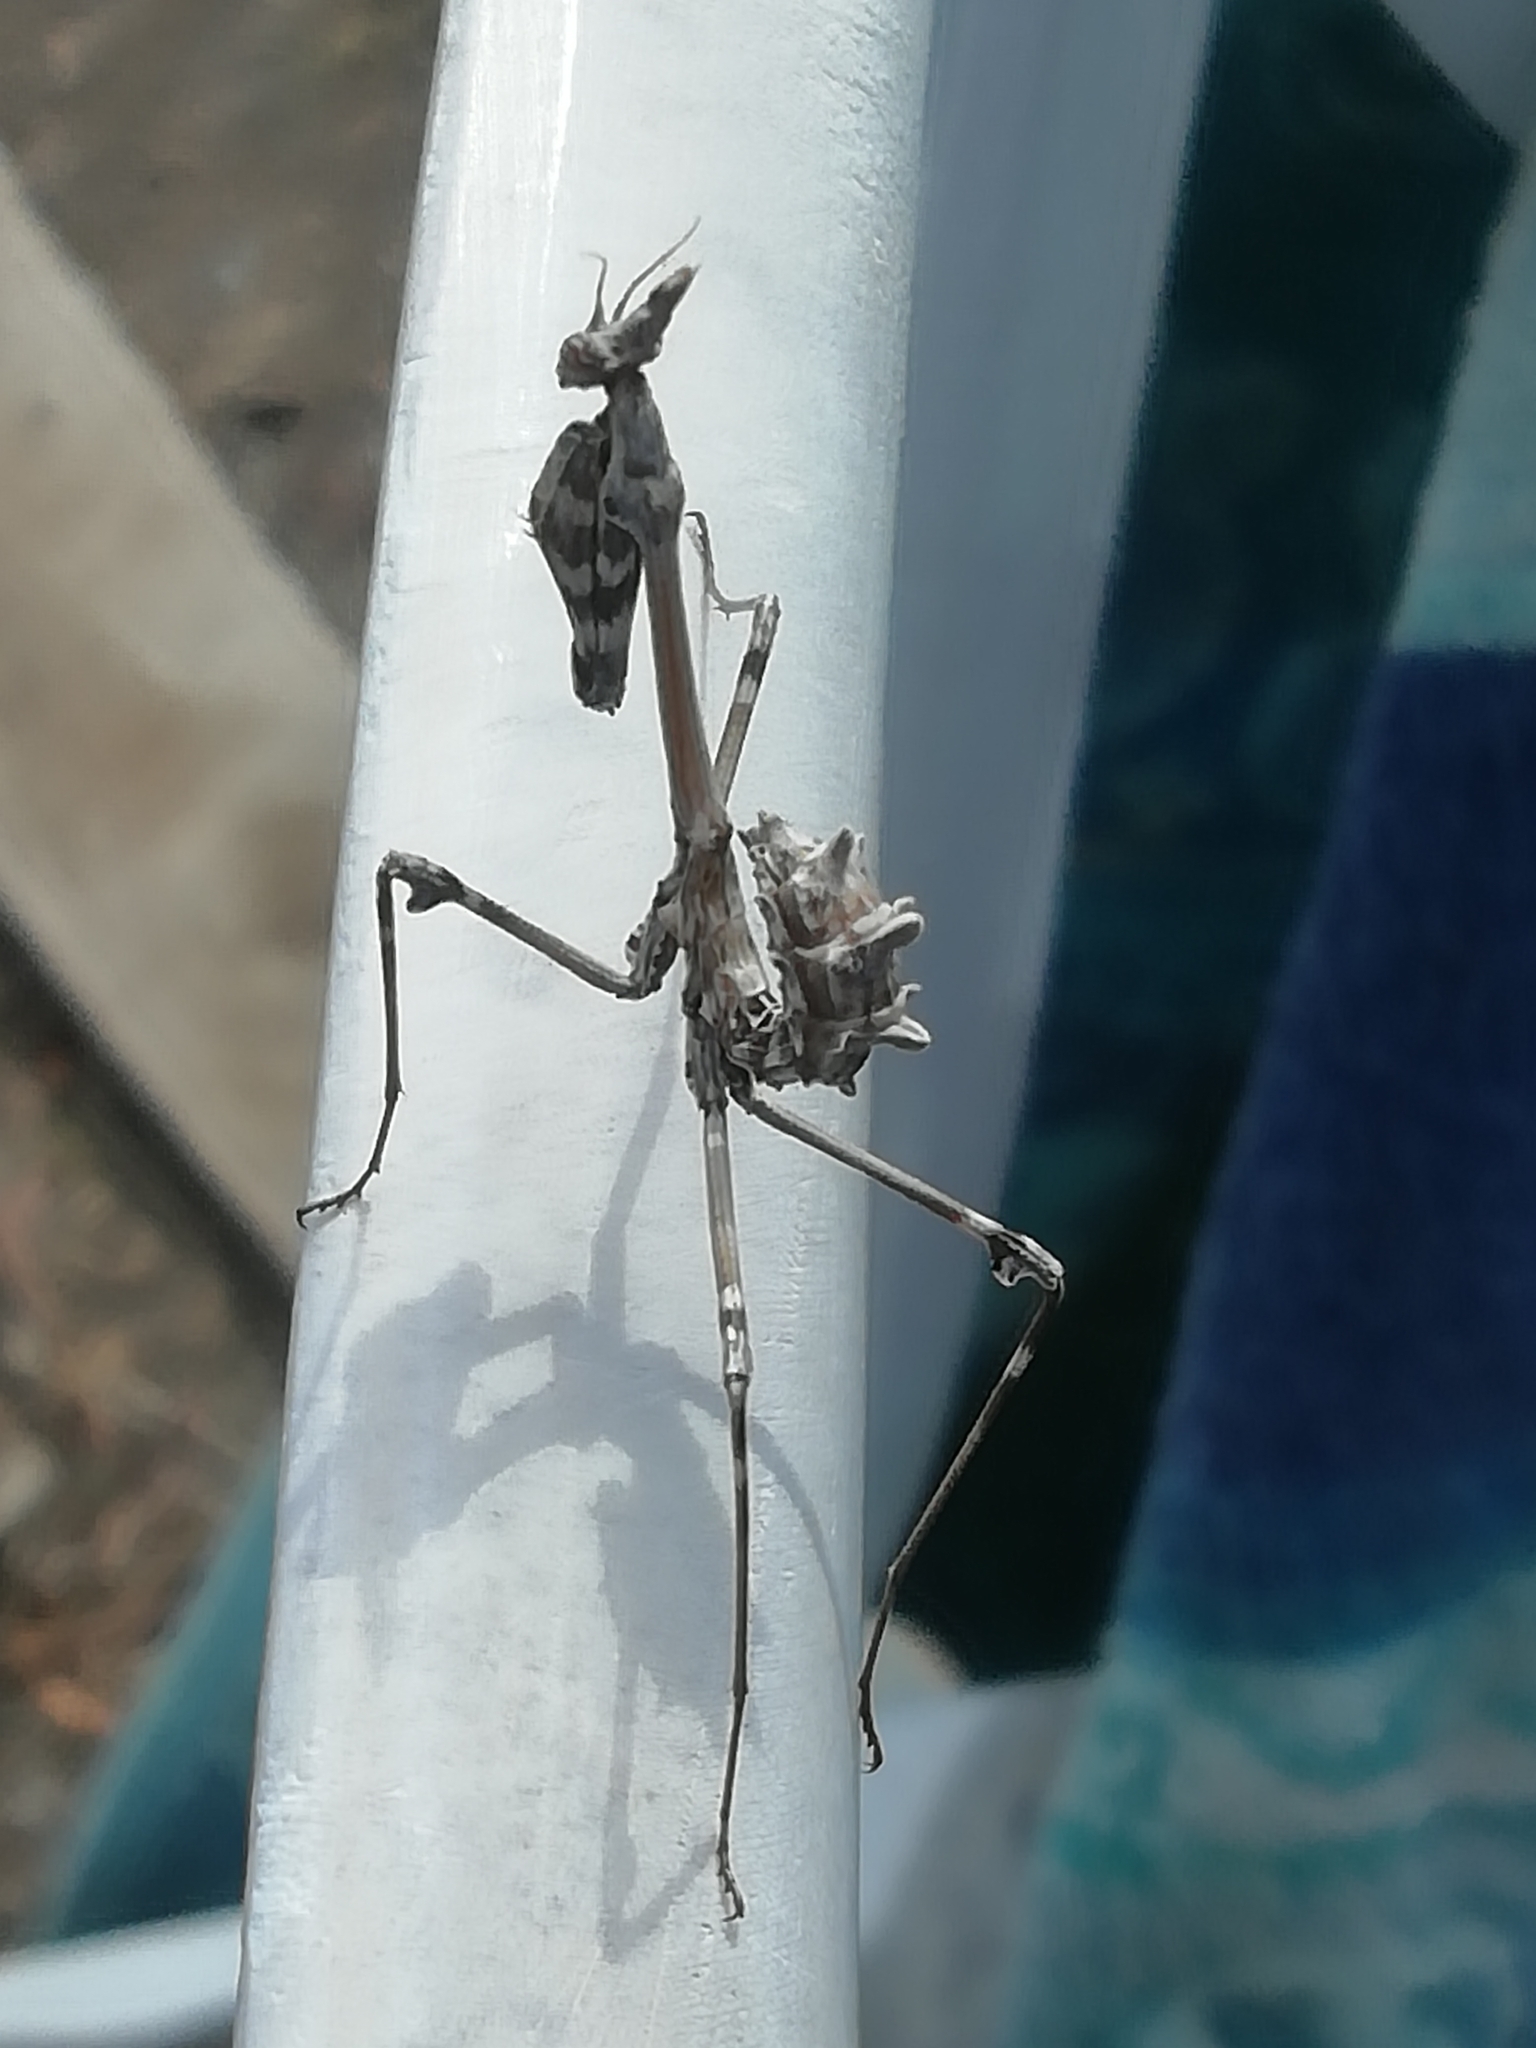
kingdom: Animalia
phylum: Arthropoda
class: Insecta
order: Mantodea
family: Empusidae
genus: Empusa
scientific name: Empusa fasciata
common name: Devil's mare
